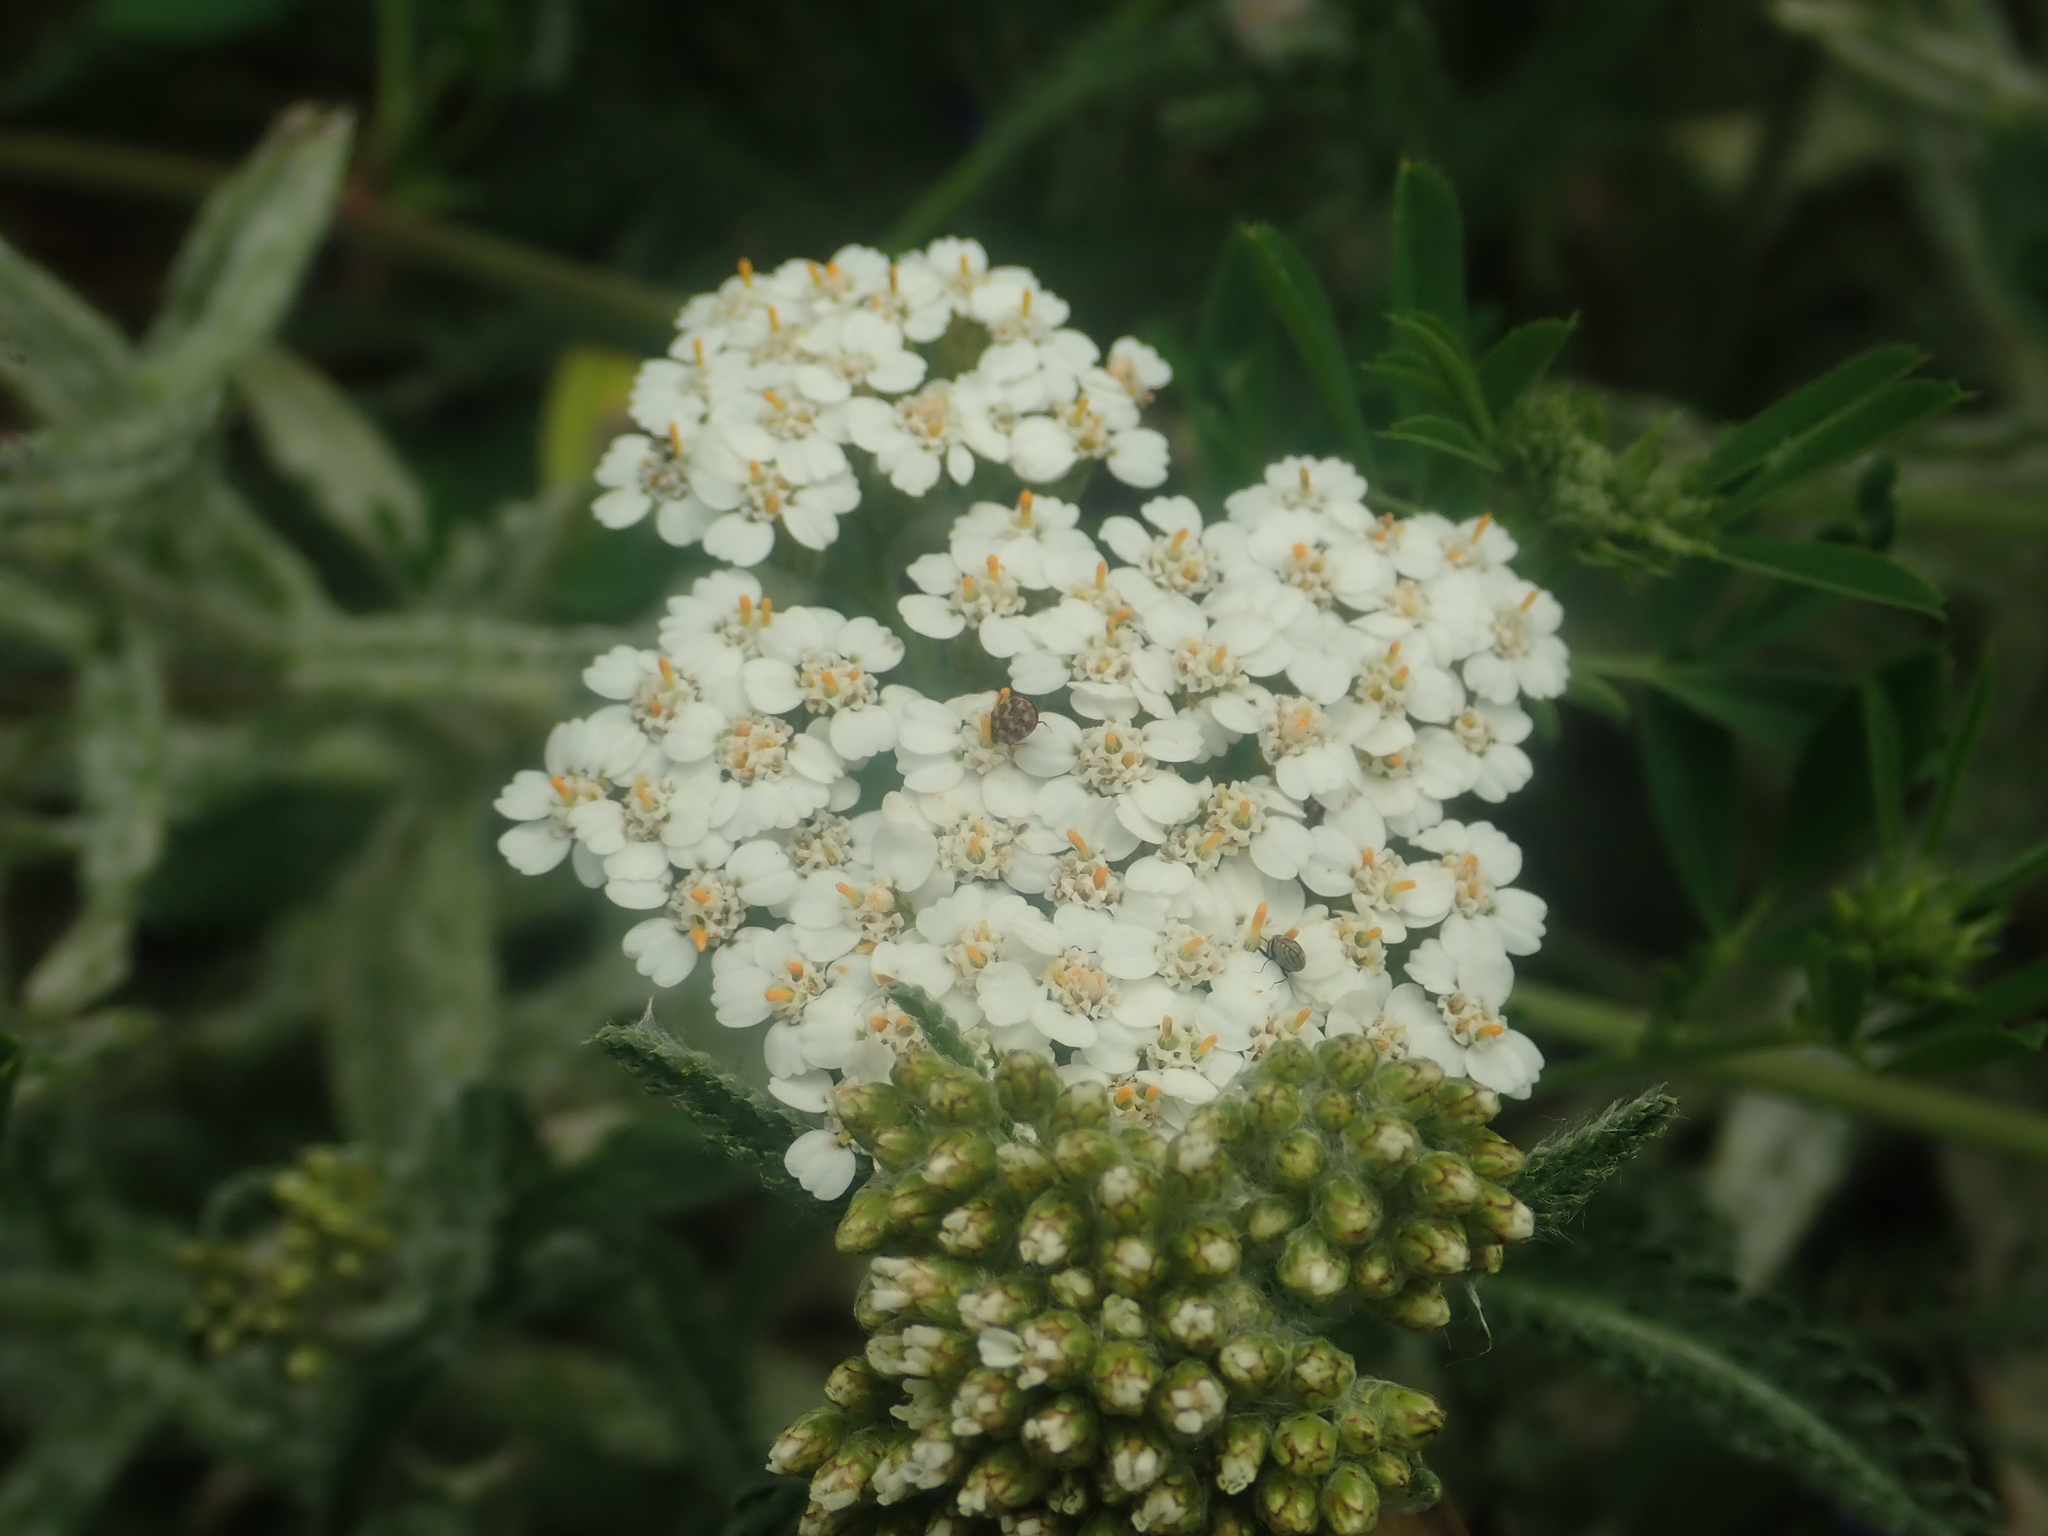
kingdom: Plantae
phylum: Tracheophyta
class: Magnoliopsida
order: Asterales
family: Asteraceae
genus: Achillea
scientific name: Achillea millefolium
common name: Yarrow
